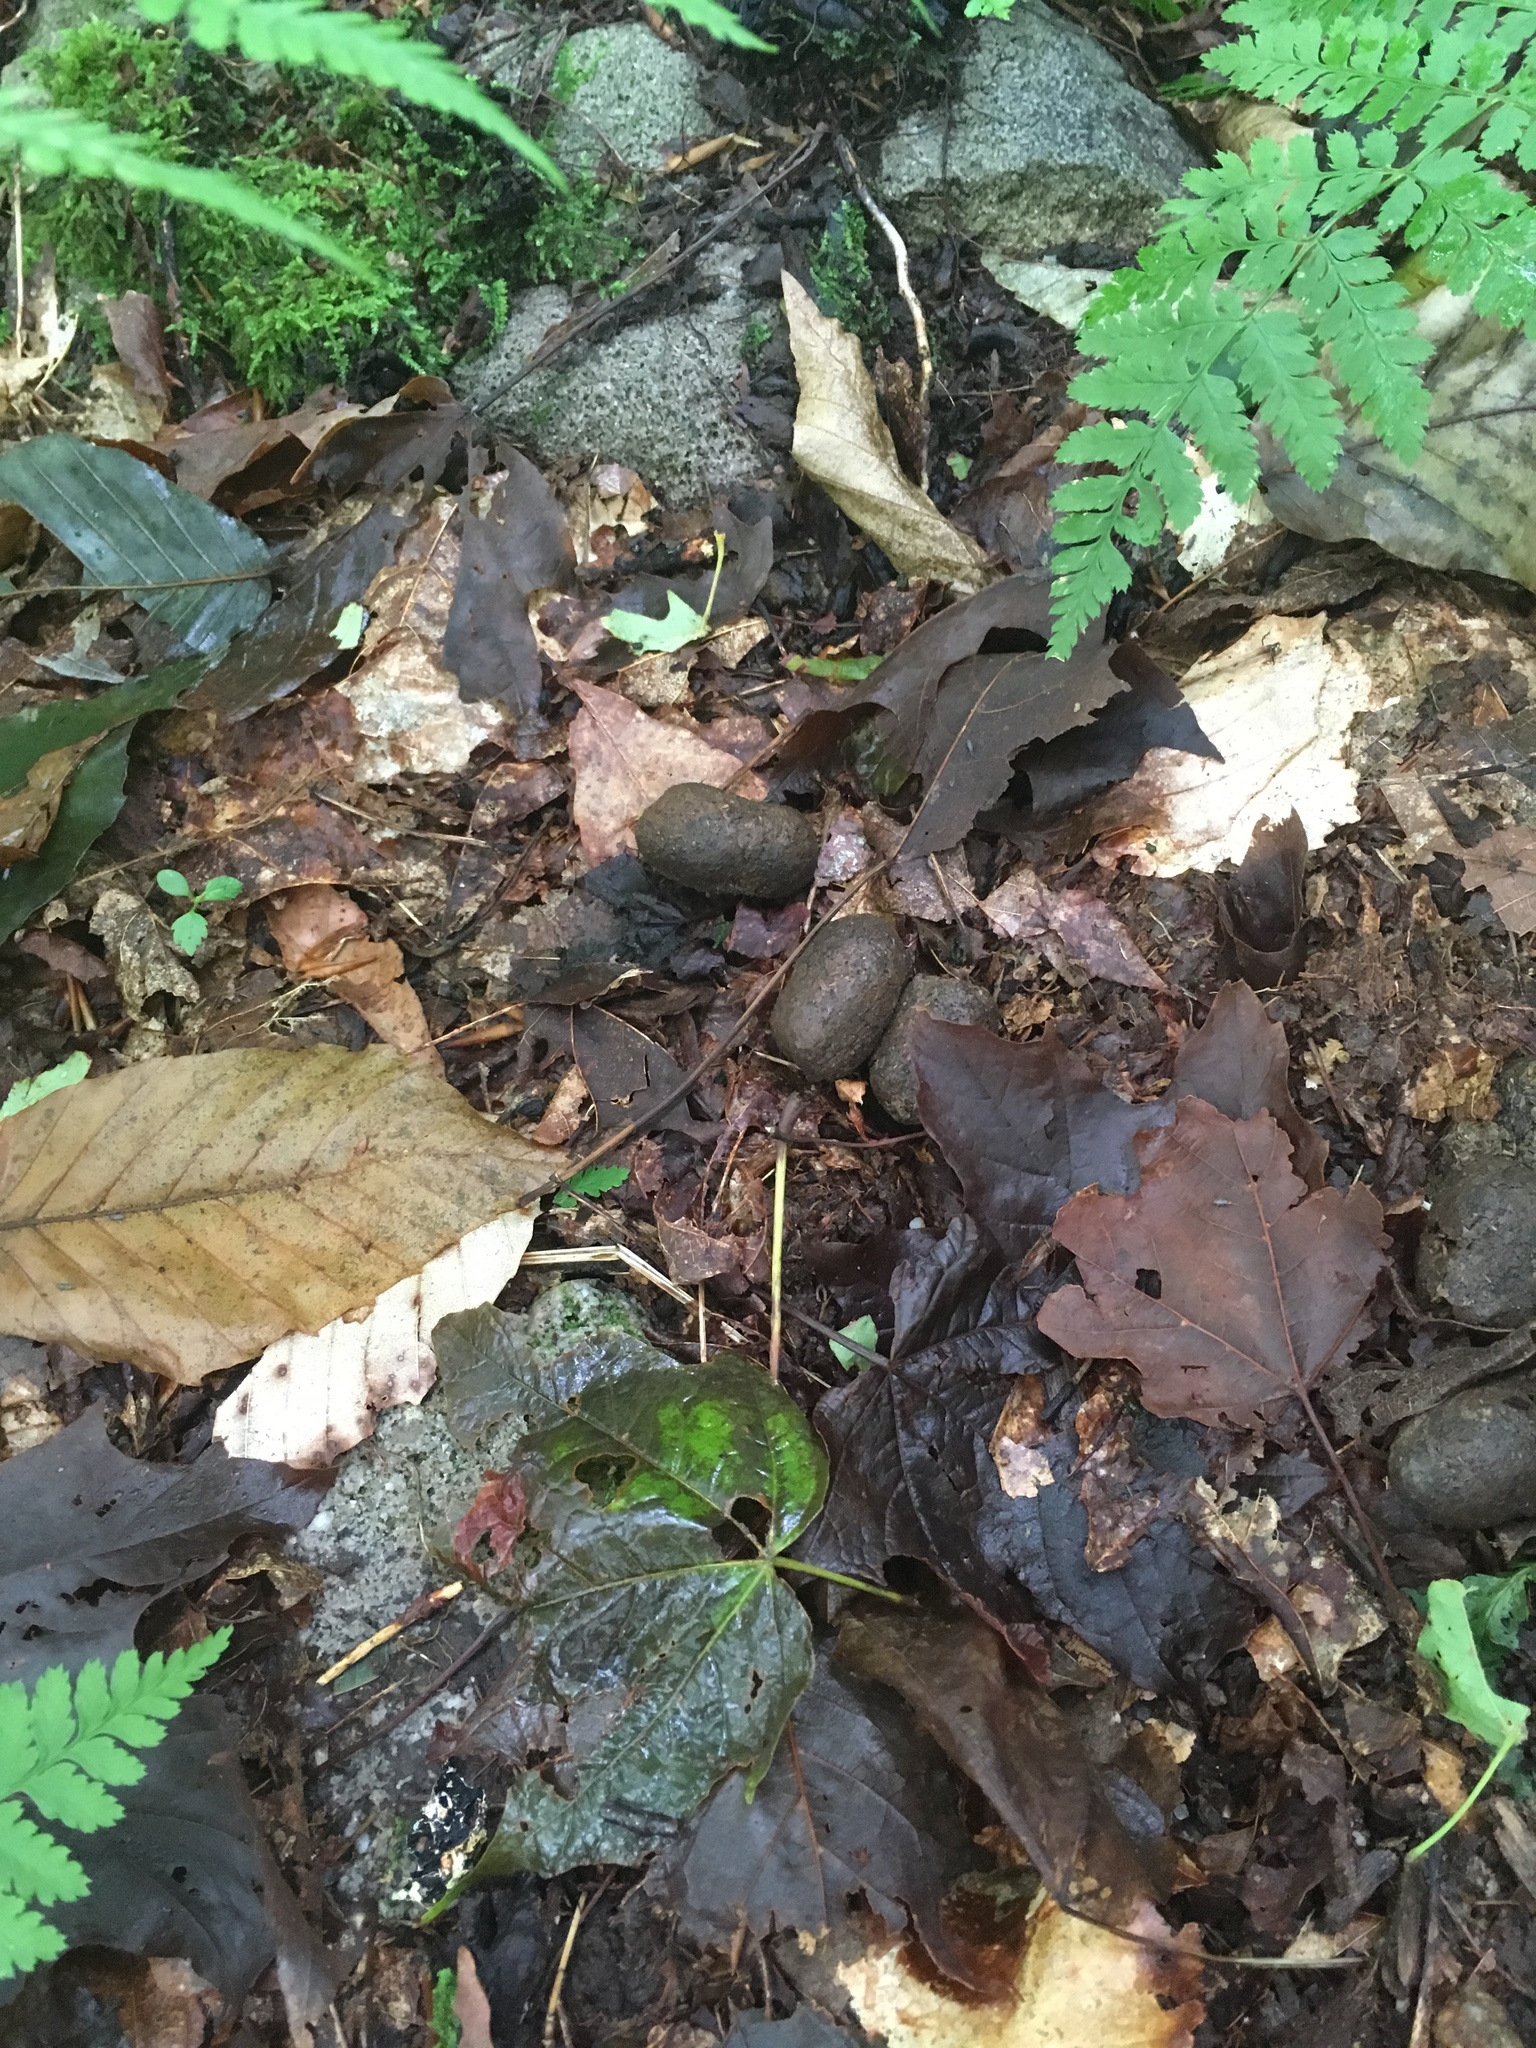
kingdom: Animalia
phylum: Chordata
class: Mammalia
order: Artiodactyla
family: Cervidae
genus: Alces
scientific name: Alces americanus
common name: Moose
